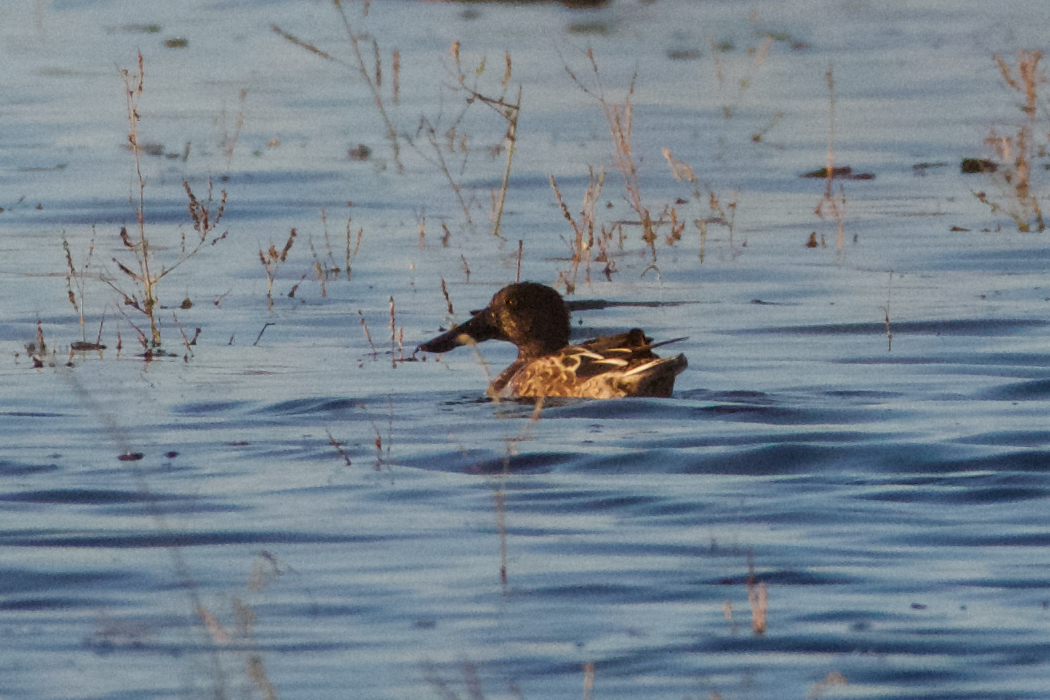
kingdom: Animalia
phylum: Chordata
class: Aves
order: Anseriformes
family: Anatidae
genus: Spatula
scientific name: Spatula clypeata
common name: Northern shoveler
